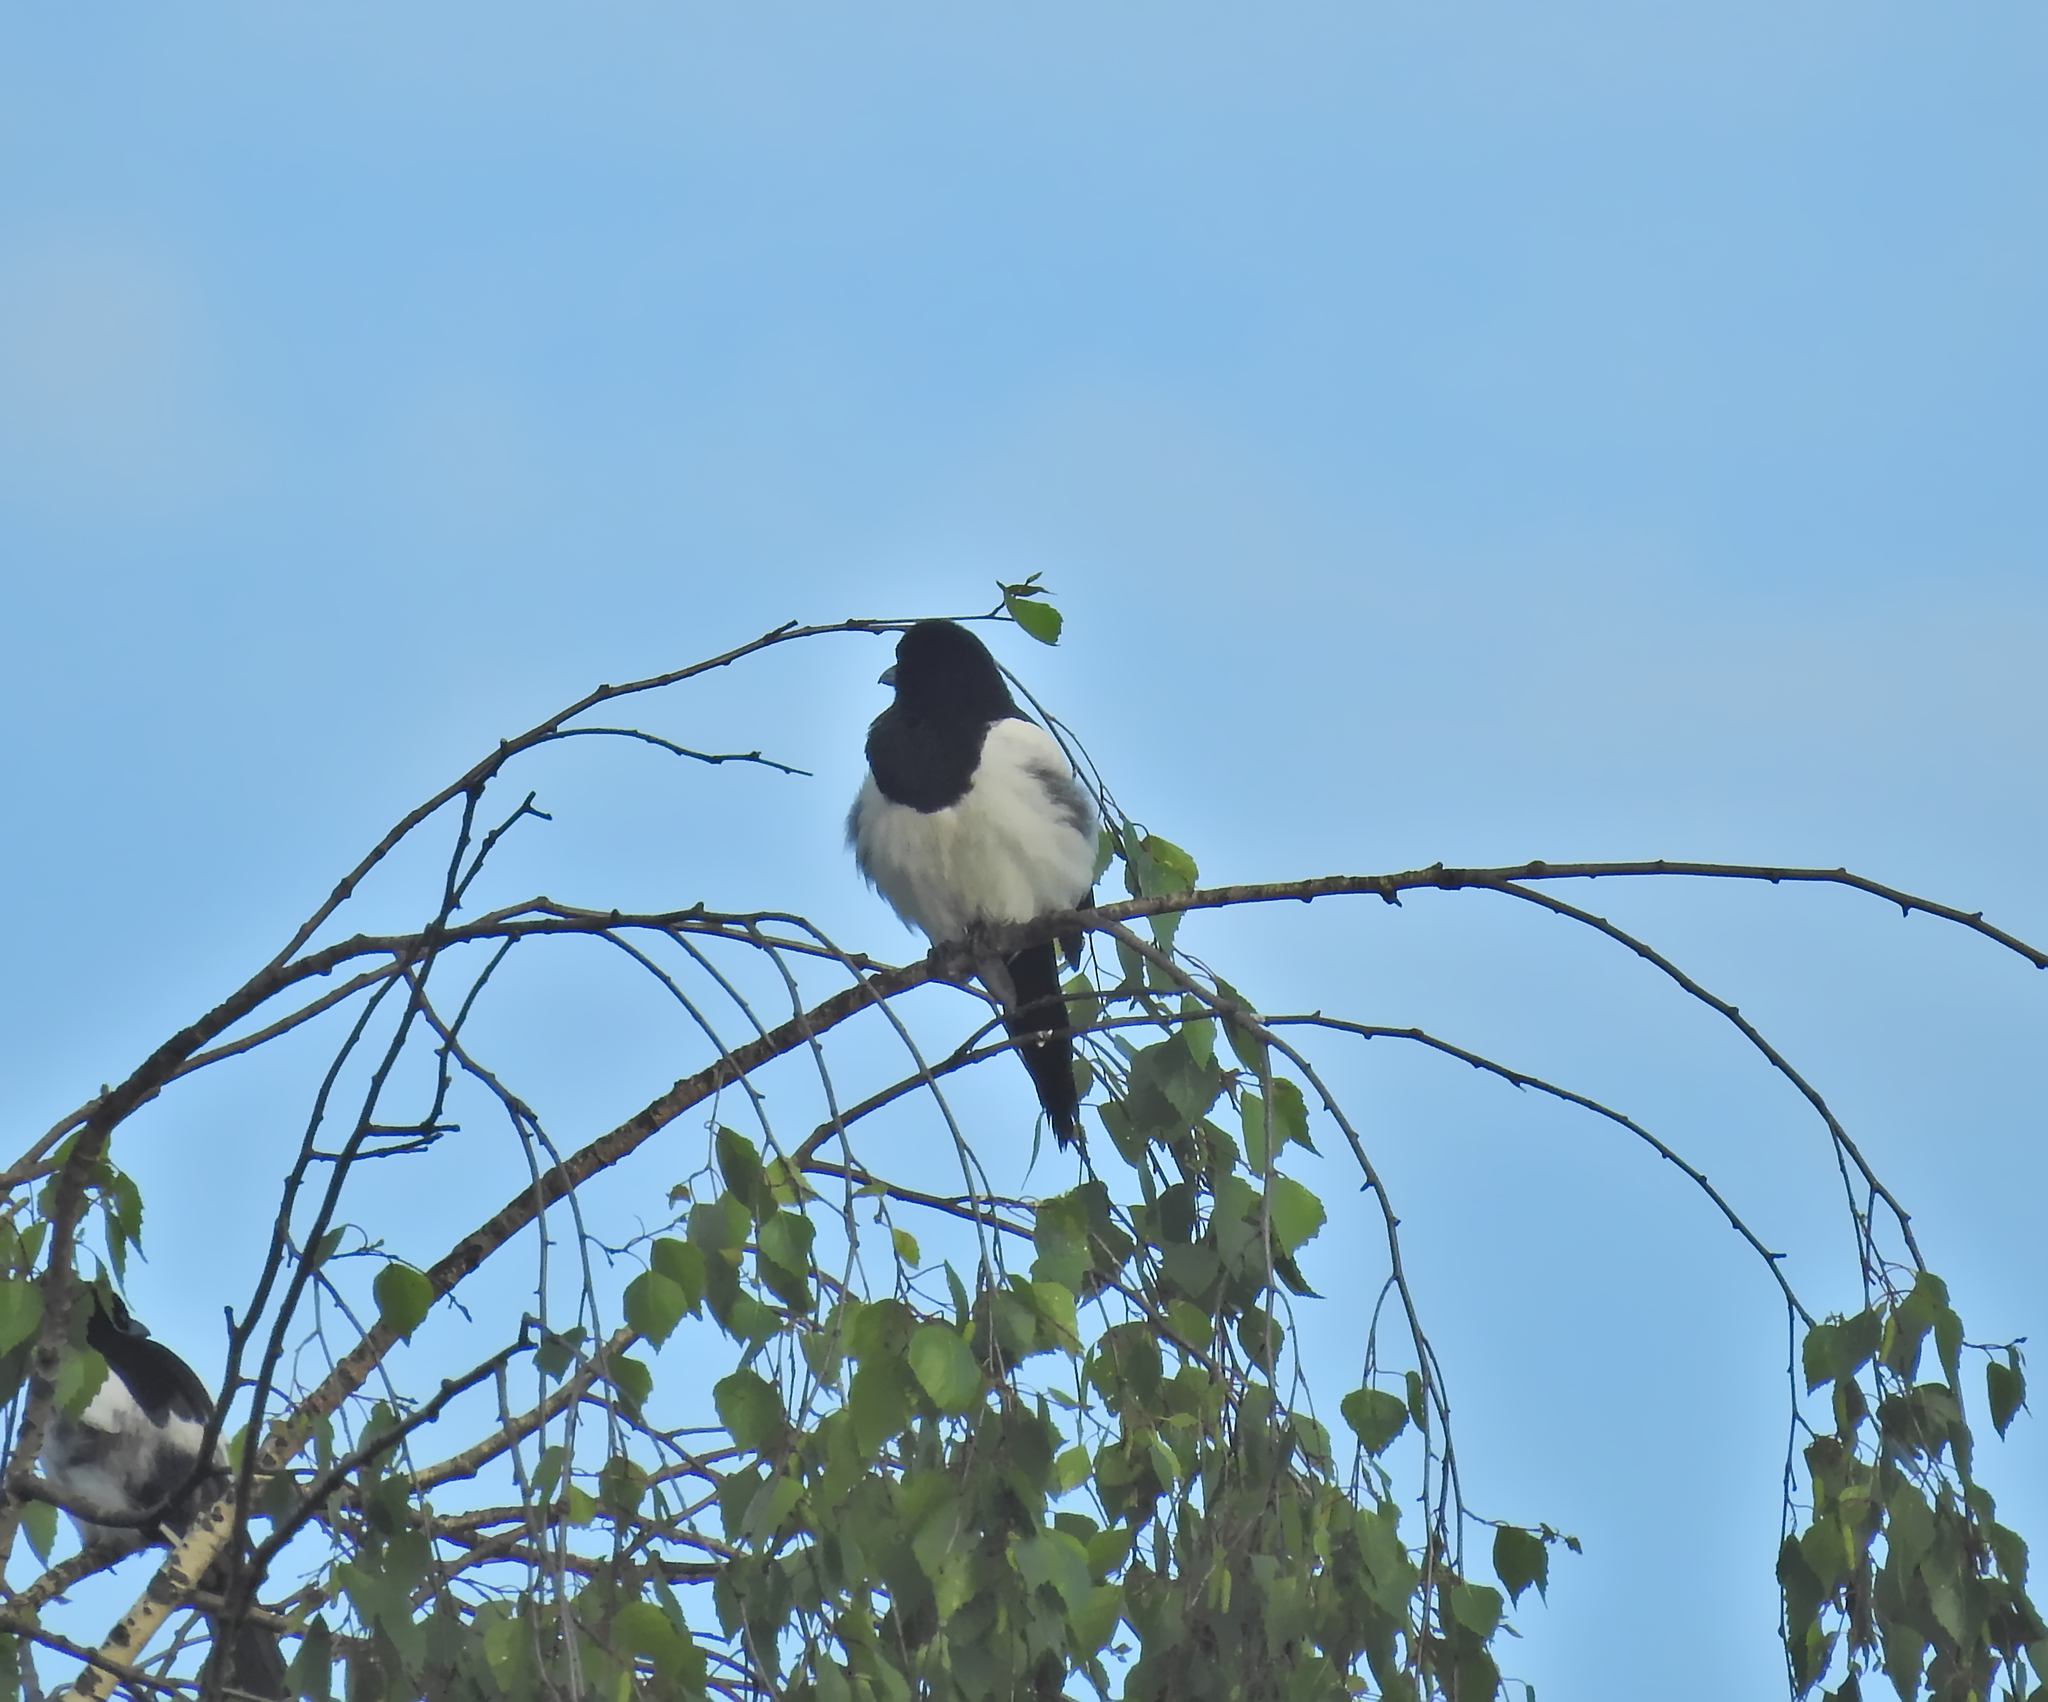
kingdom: Animalia
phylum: Chordata
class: Aves
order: Passeriformes
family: Corvidae
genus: Pica
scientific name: Pica pica
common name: Eurasian magpie
